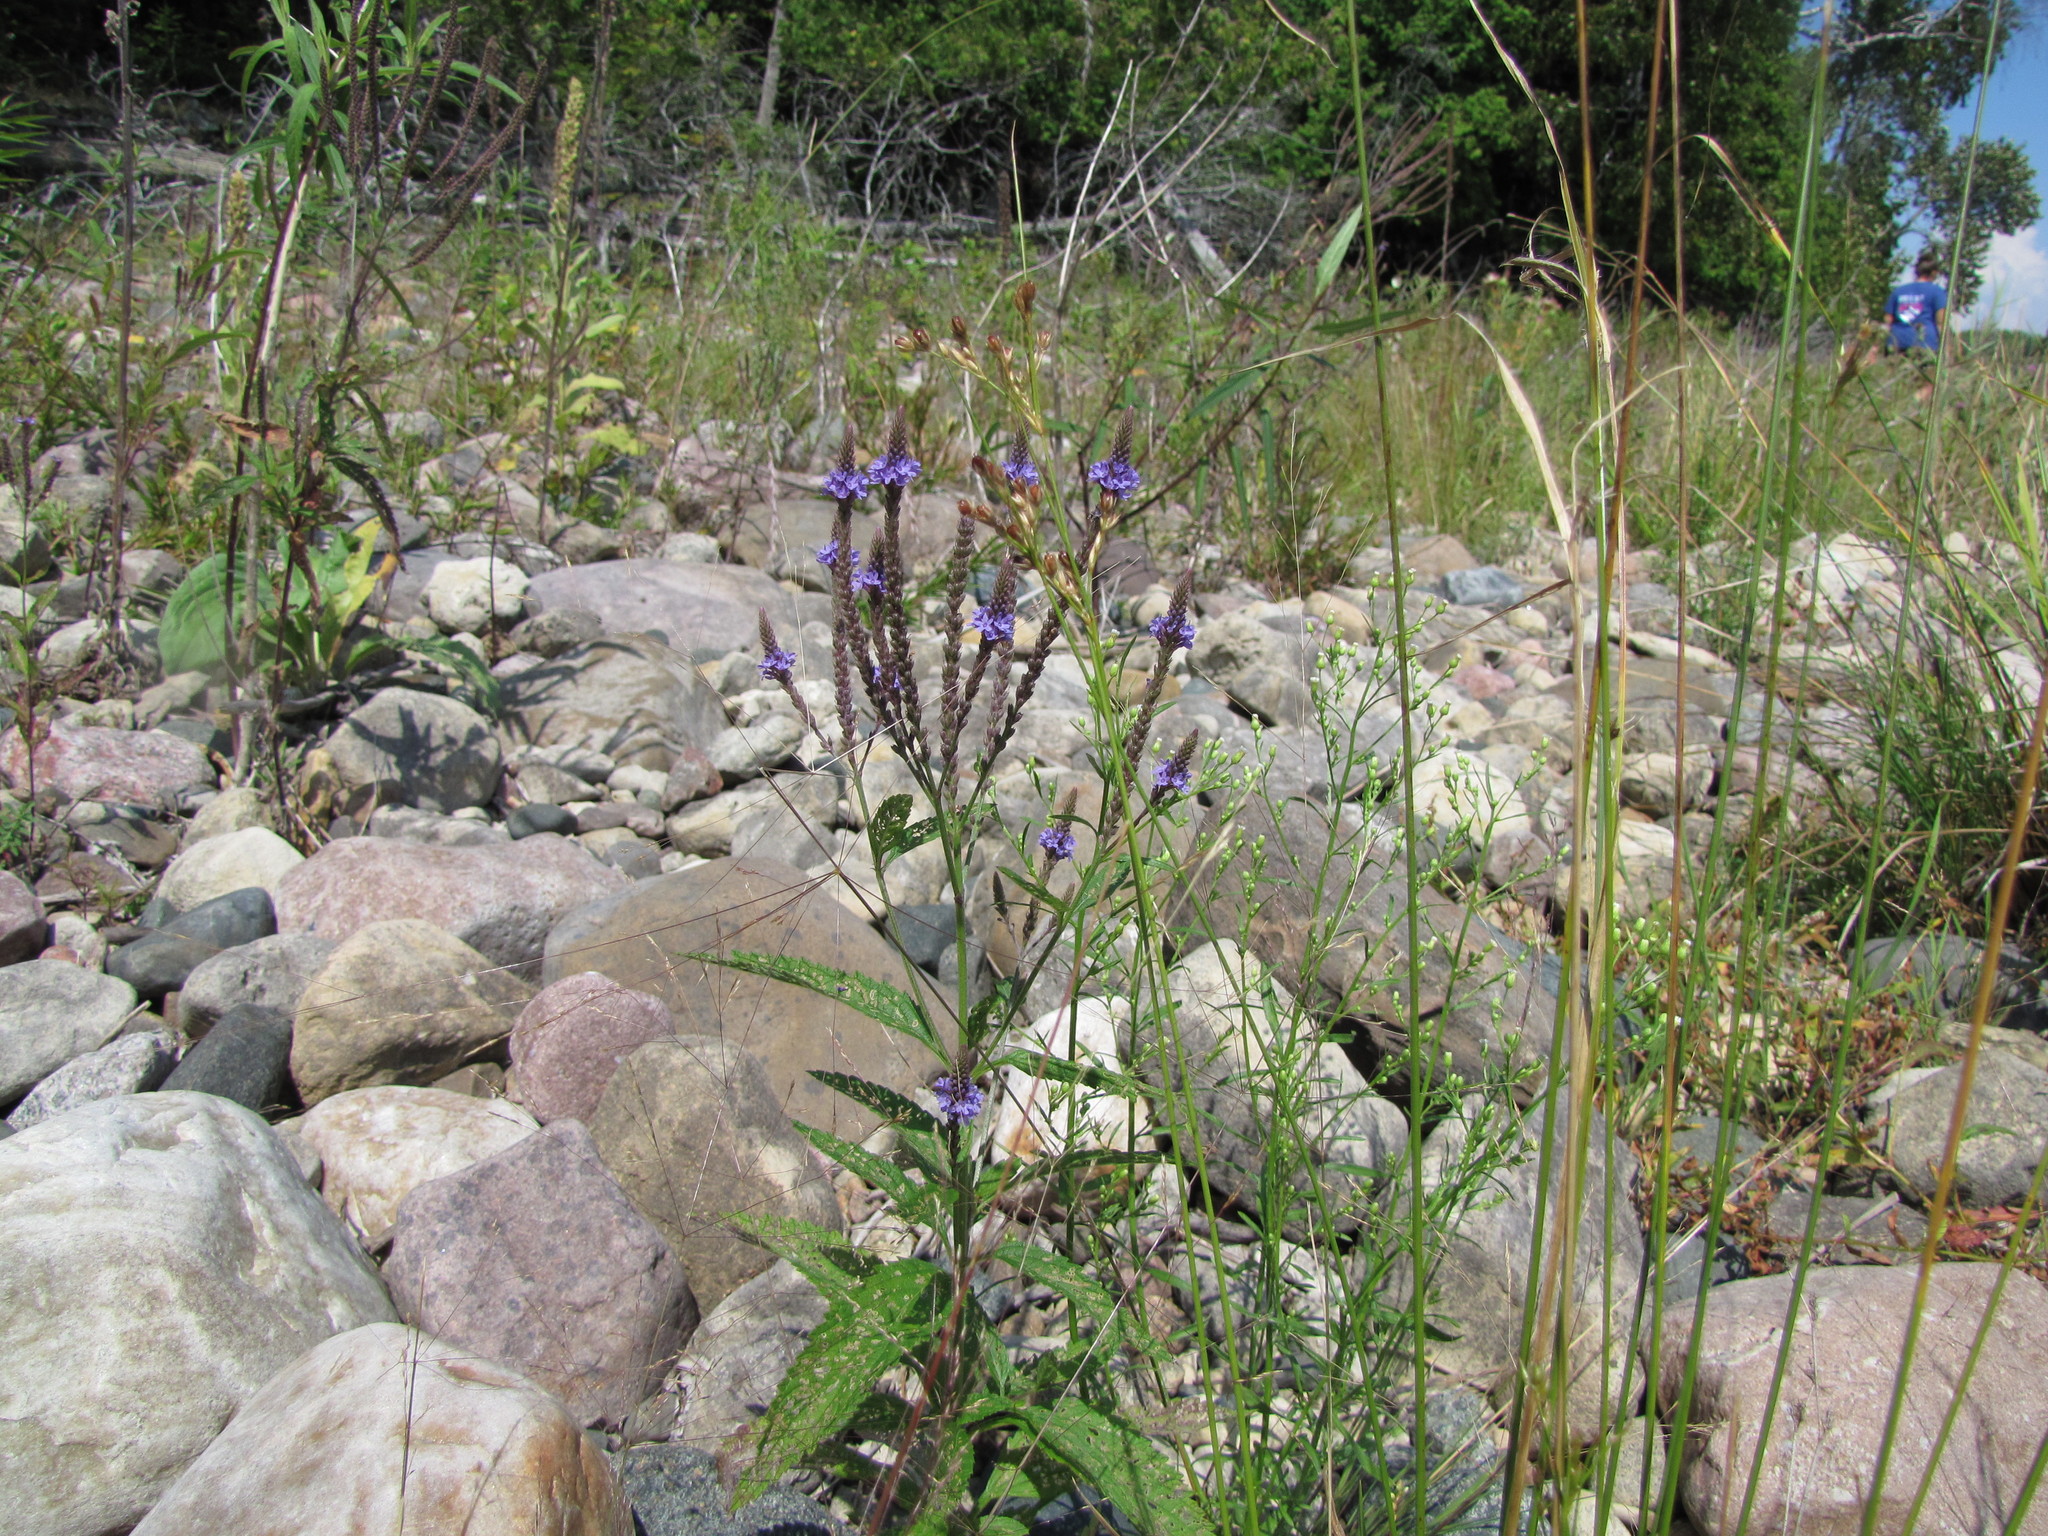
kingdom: Plantae
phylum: Tracheophyta
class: Magnoliopsida
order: Lamiales
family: Verbenaceae
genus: Verbena
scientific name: Verbena hastata
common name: American blue vervain
